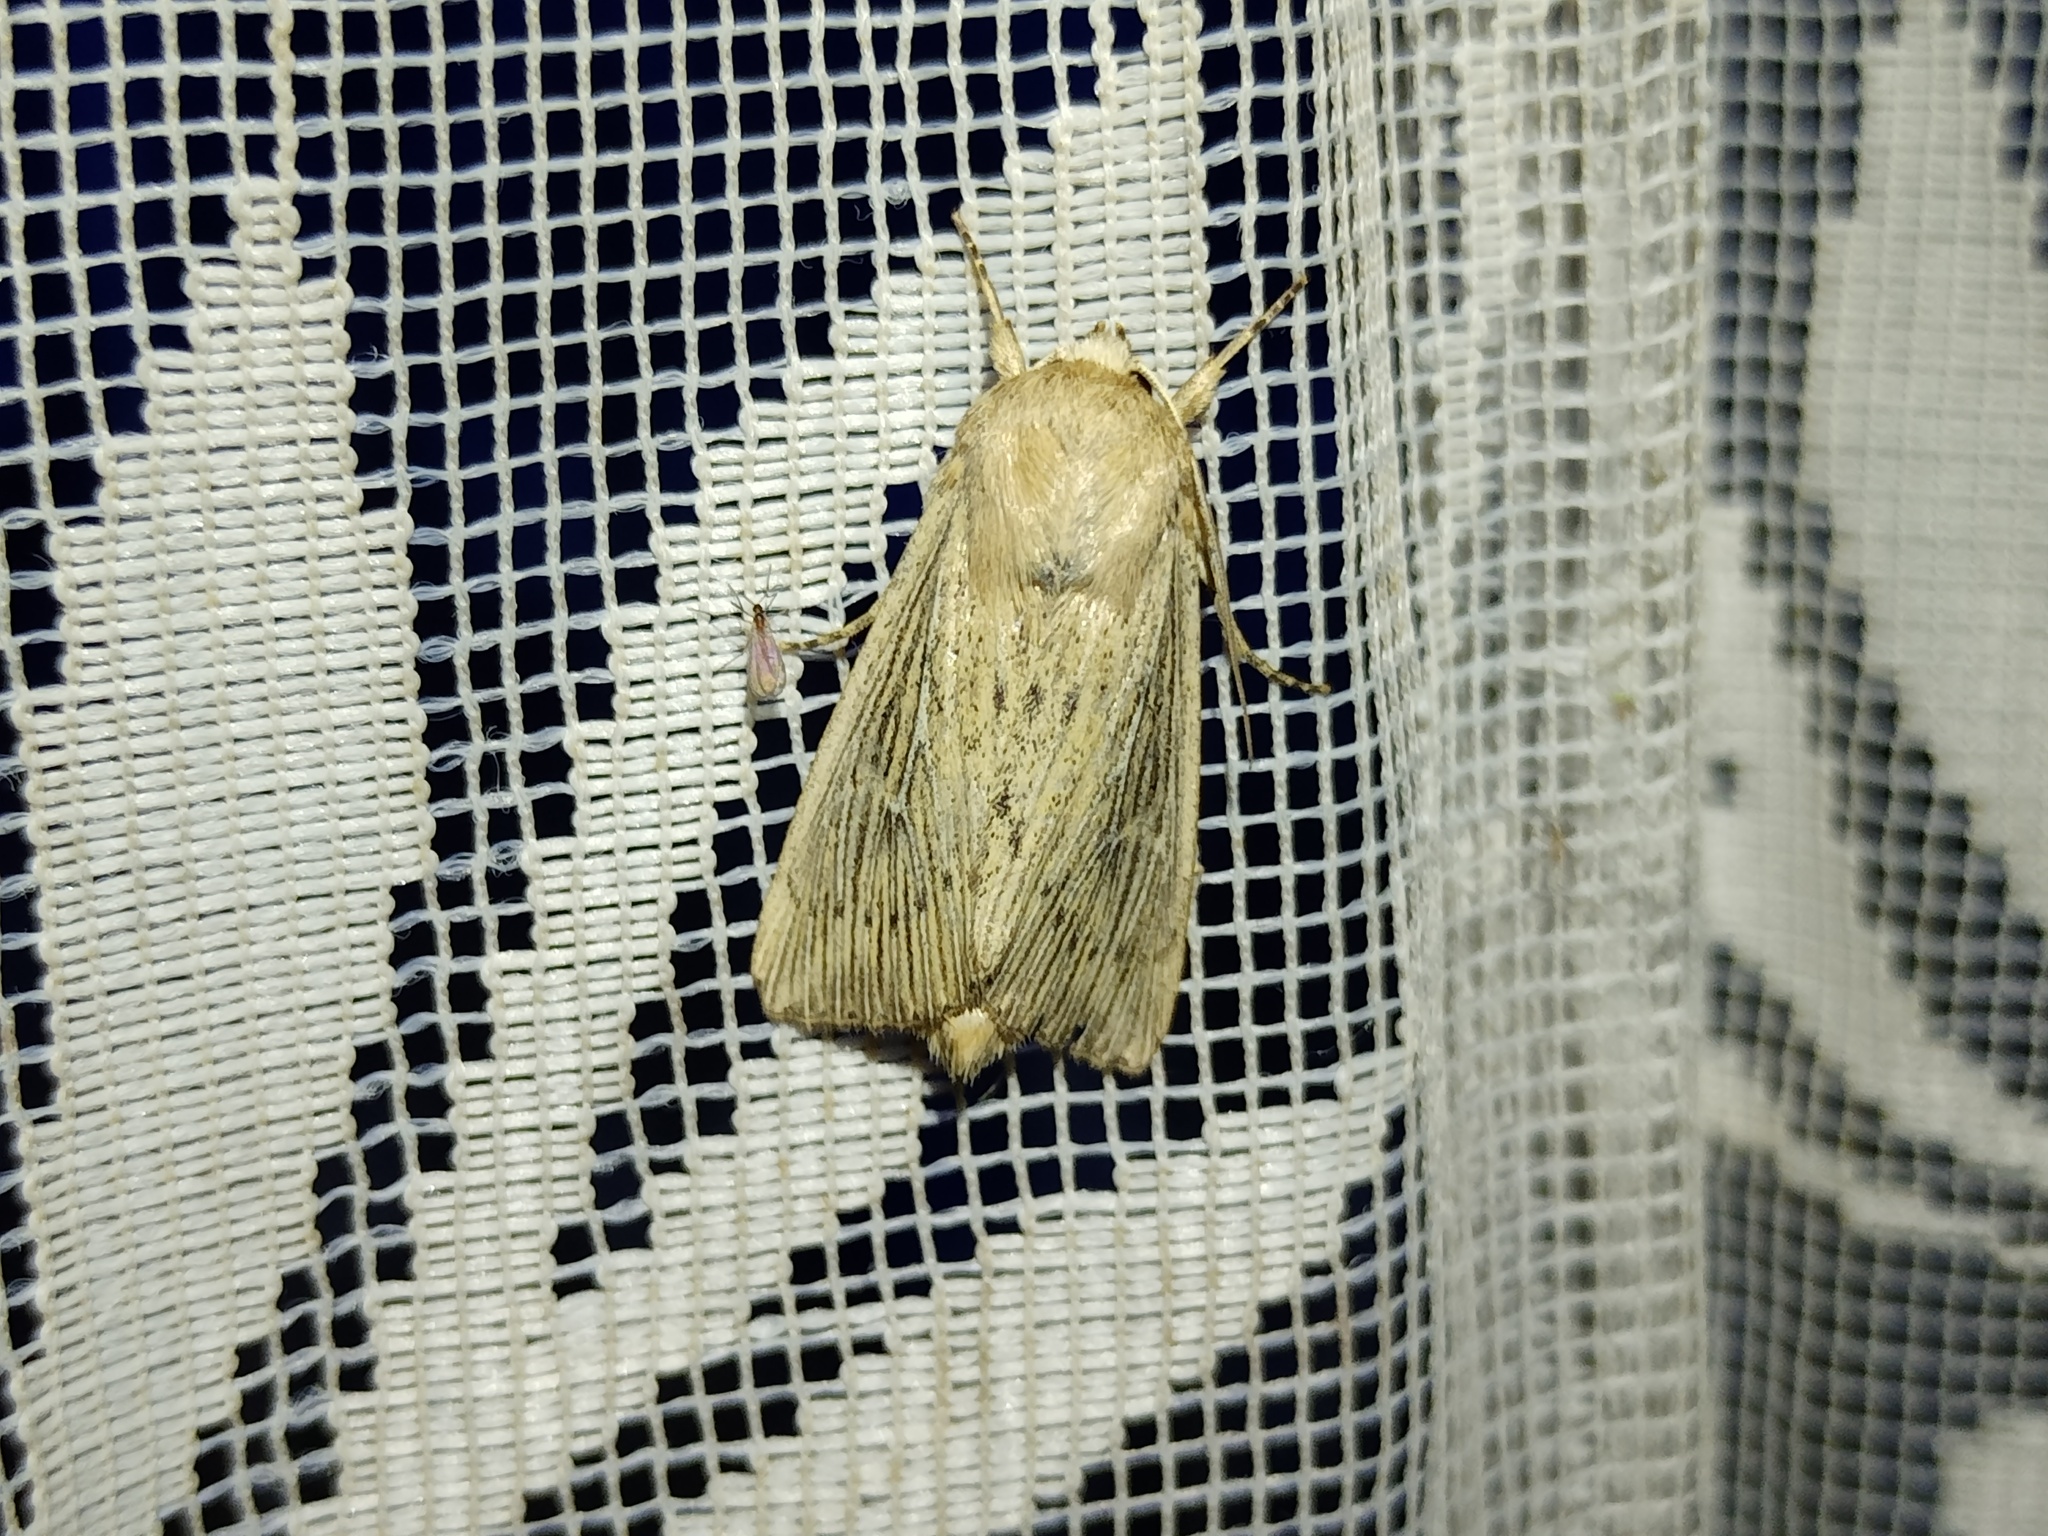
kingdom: Animalia
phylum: Arthropoda
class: Insecta
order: Lepidoptera
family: Noctuidae
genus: Leucania
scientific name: Leucania obsoleta
